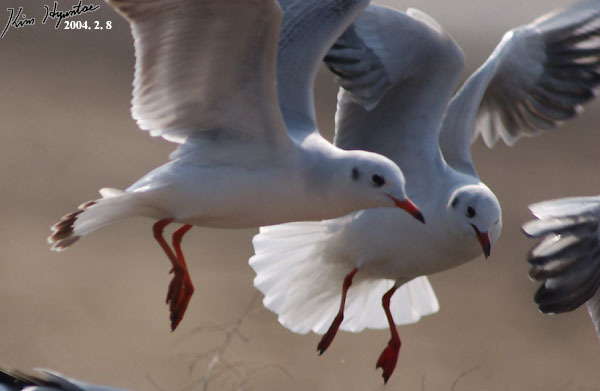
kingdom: Animalia
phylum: Chordata
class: Aves
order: Charadriiformes
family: Laridae
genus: Chroicocephalus
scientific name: Chroicocephalus ridibundus
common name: Black-headed gull
